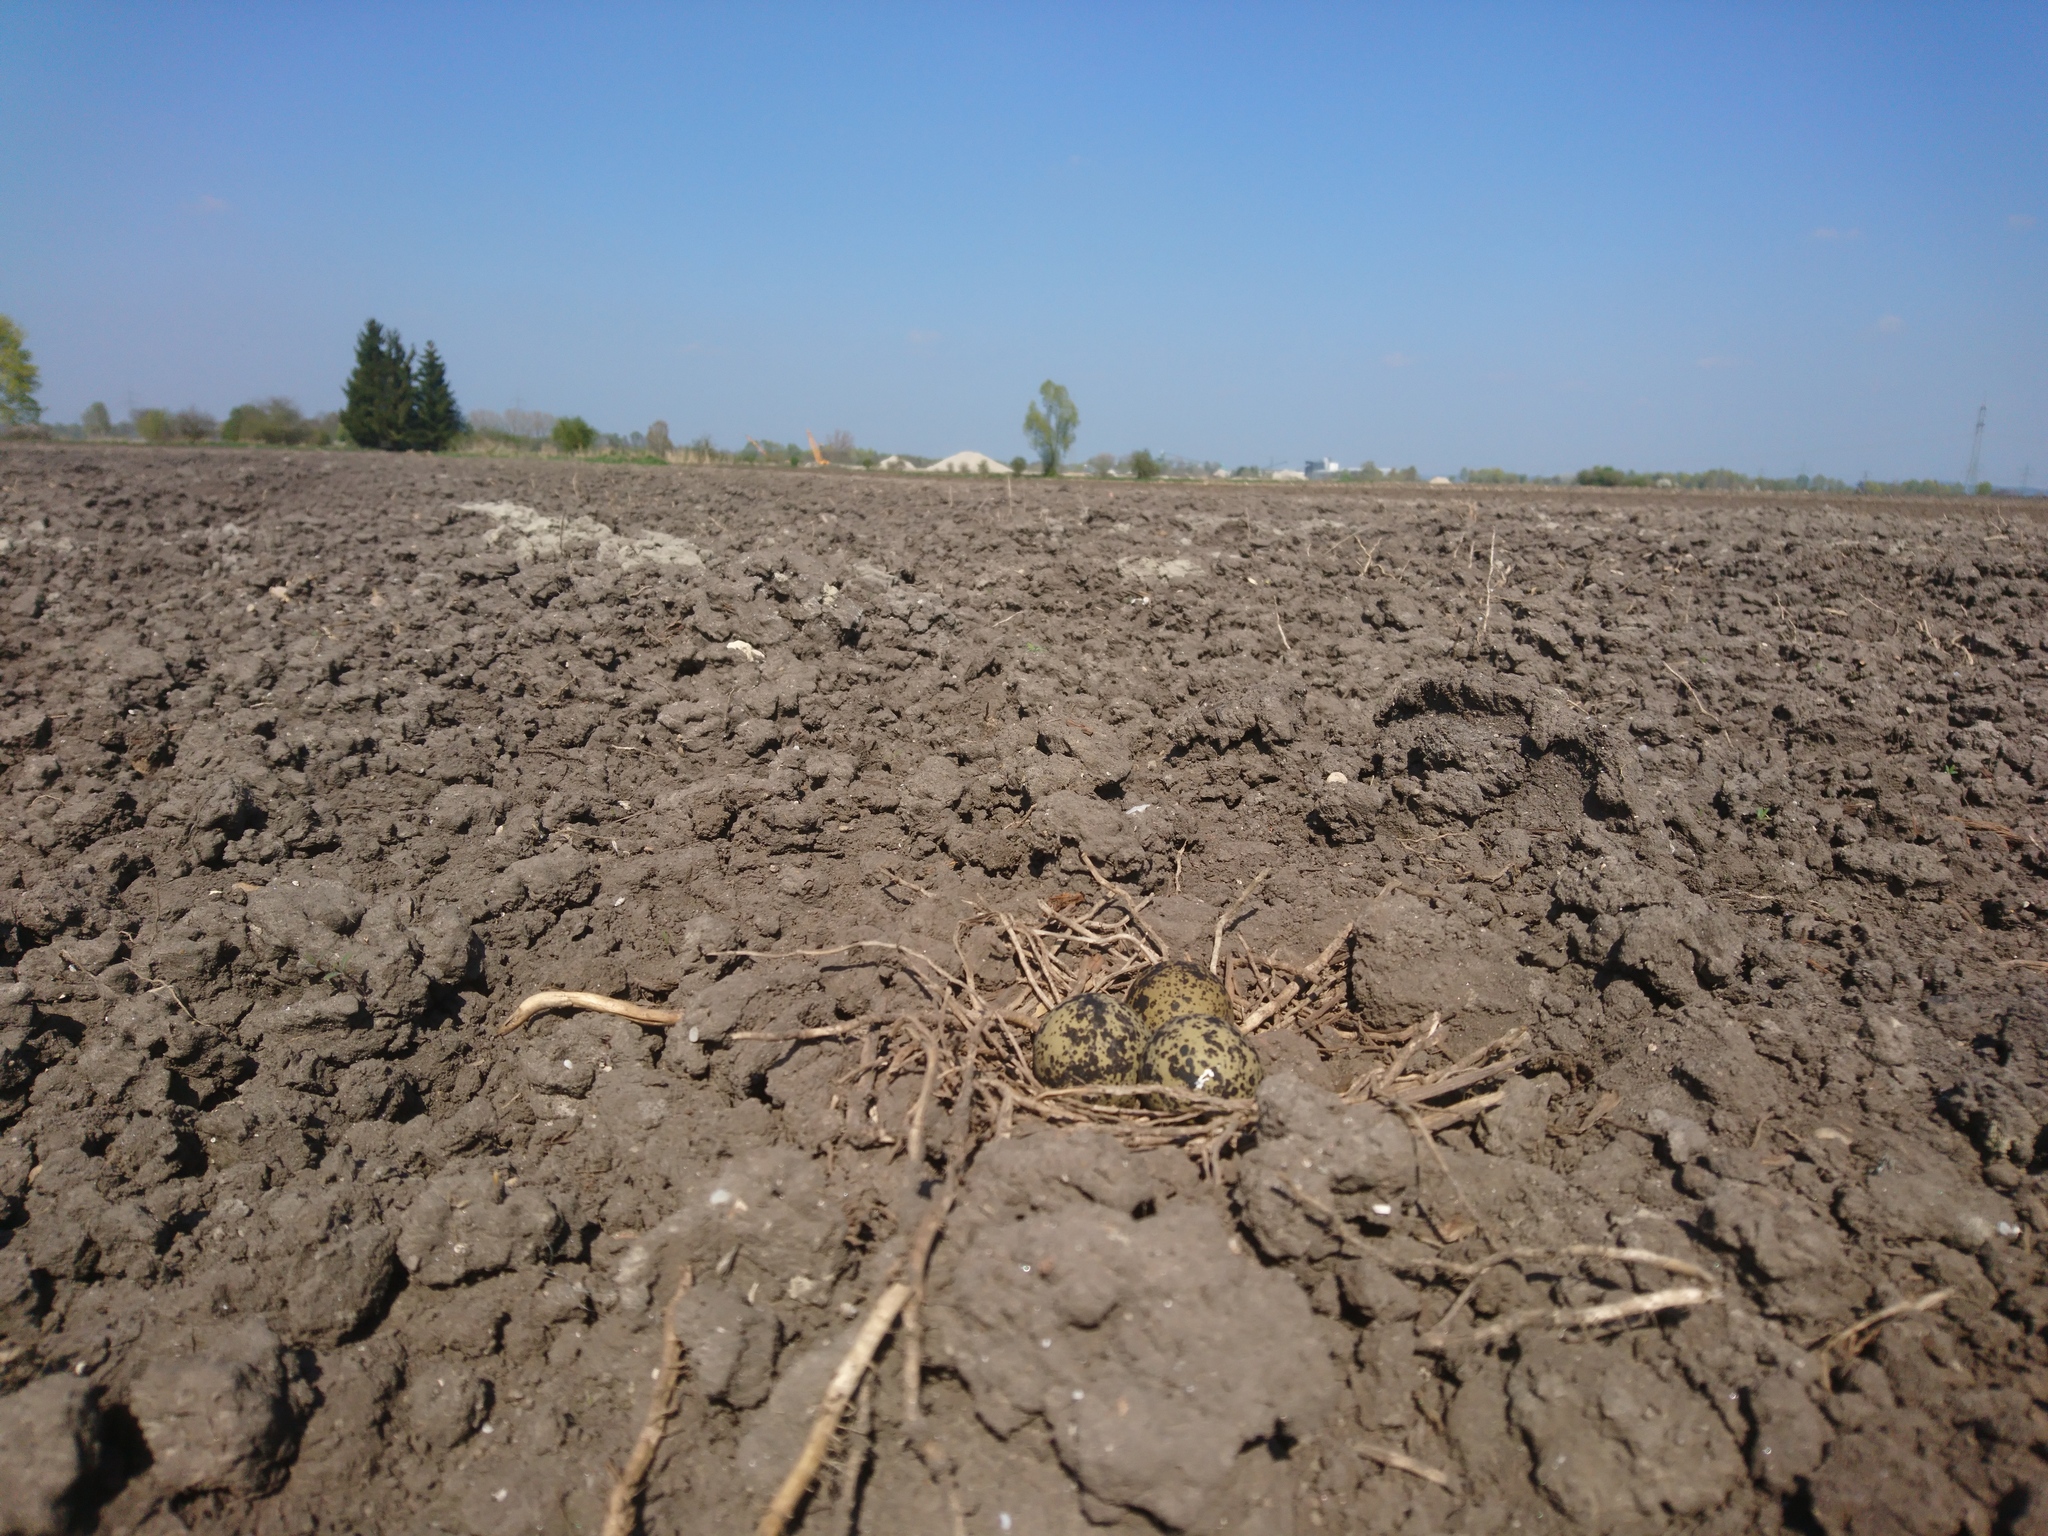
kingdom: Animalia
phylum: Chordata
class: Aves
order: Charadriiformes
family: Charadriidae
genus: Vanellus
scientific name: Vanellus vanellus
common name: Northern lapwing
